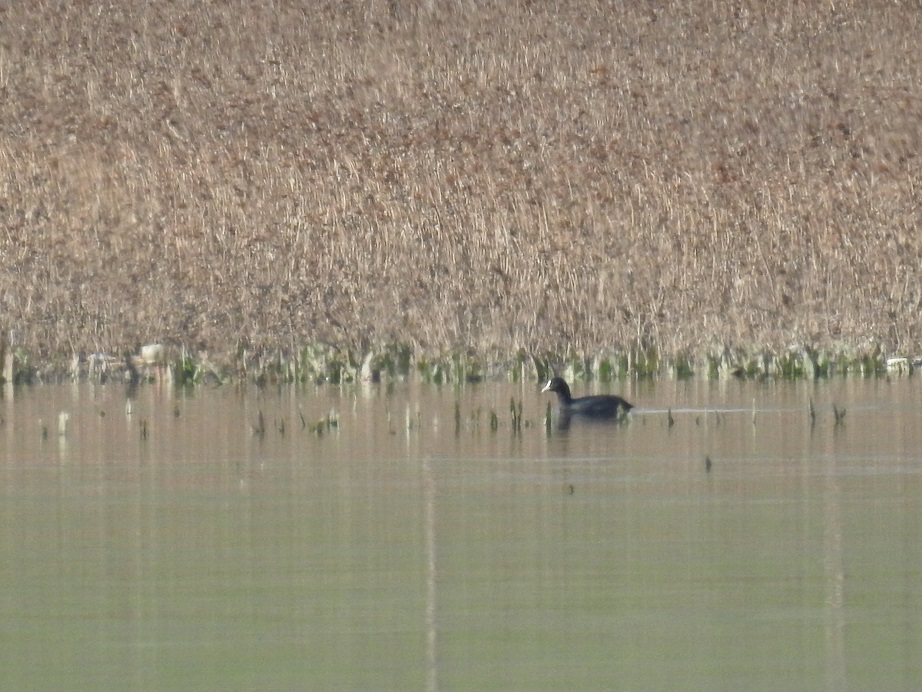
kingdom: Animalia
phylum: Chordata
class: Aves
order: Gruiformes
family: Rallidae
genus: Fulica
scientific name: Fulica atra
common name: Eurasian coot
